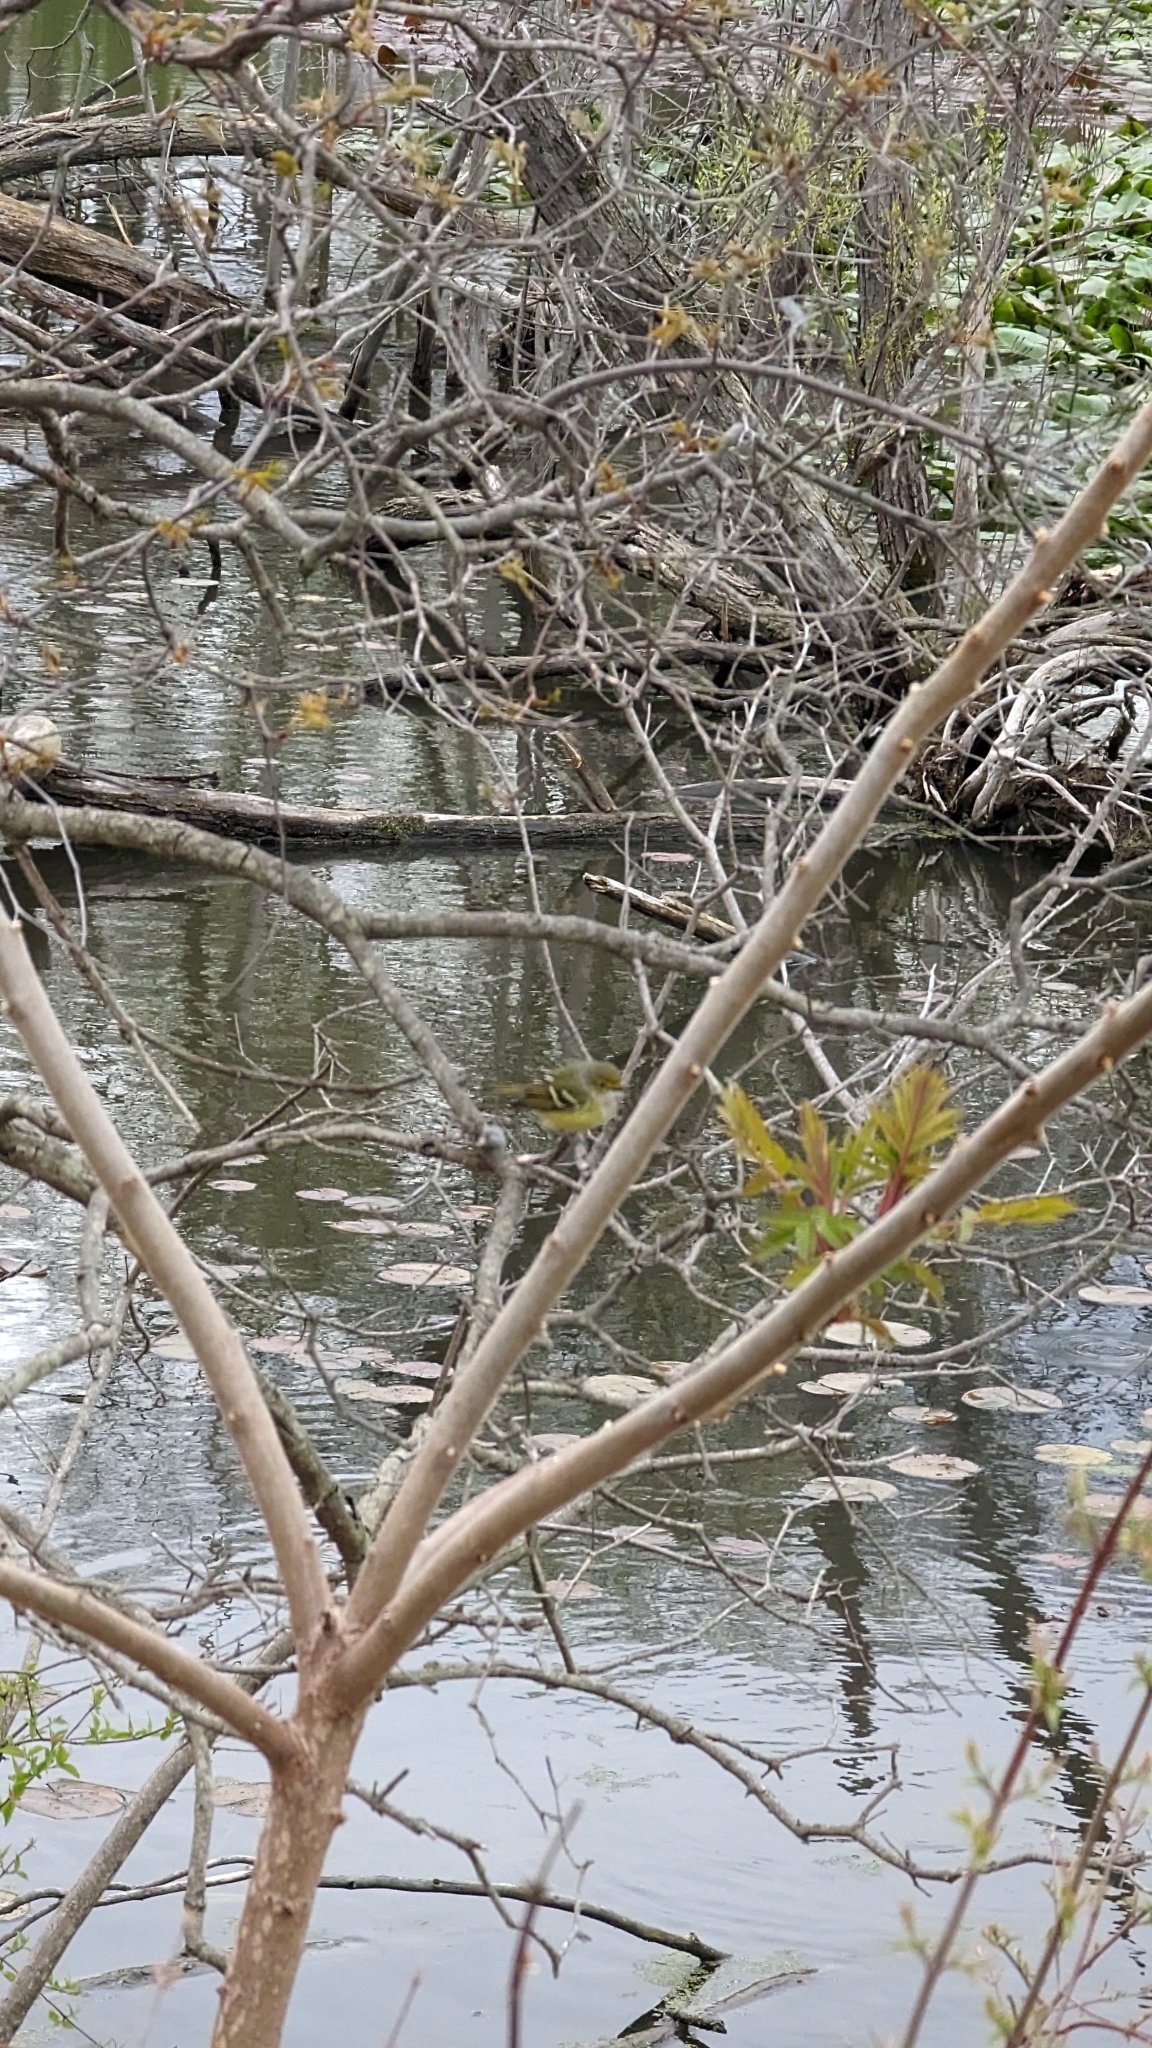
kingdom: Animalia
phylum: Chordata
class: Aves
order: Passeriformes
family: Vireonidae
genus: Vireo
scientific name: Vireo griseus
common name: White-eyed vireo
